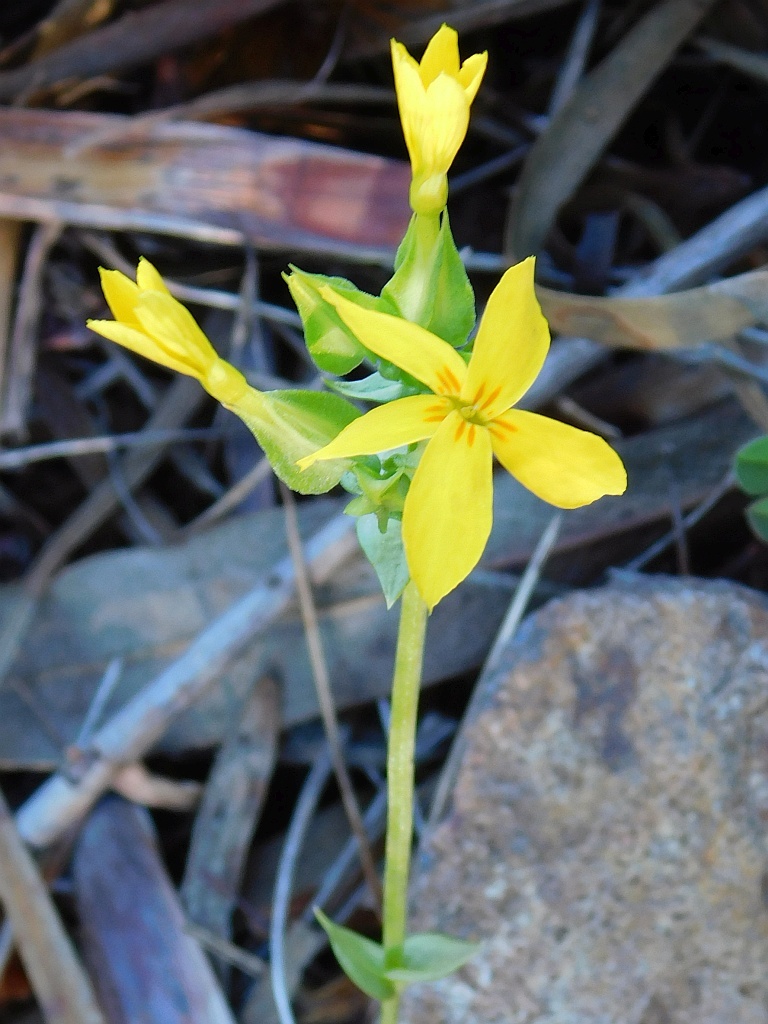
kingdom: Plantae
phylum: Tracheophyta
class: Magnoliopsida
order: Gentianales
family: Gentianaceae
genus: Sebaea
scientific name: Sebaea exacoides
